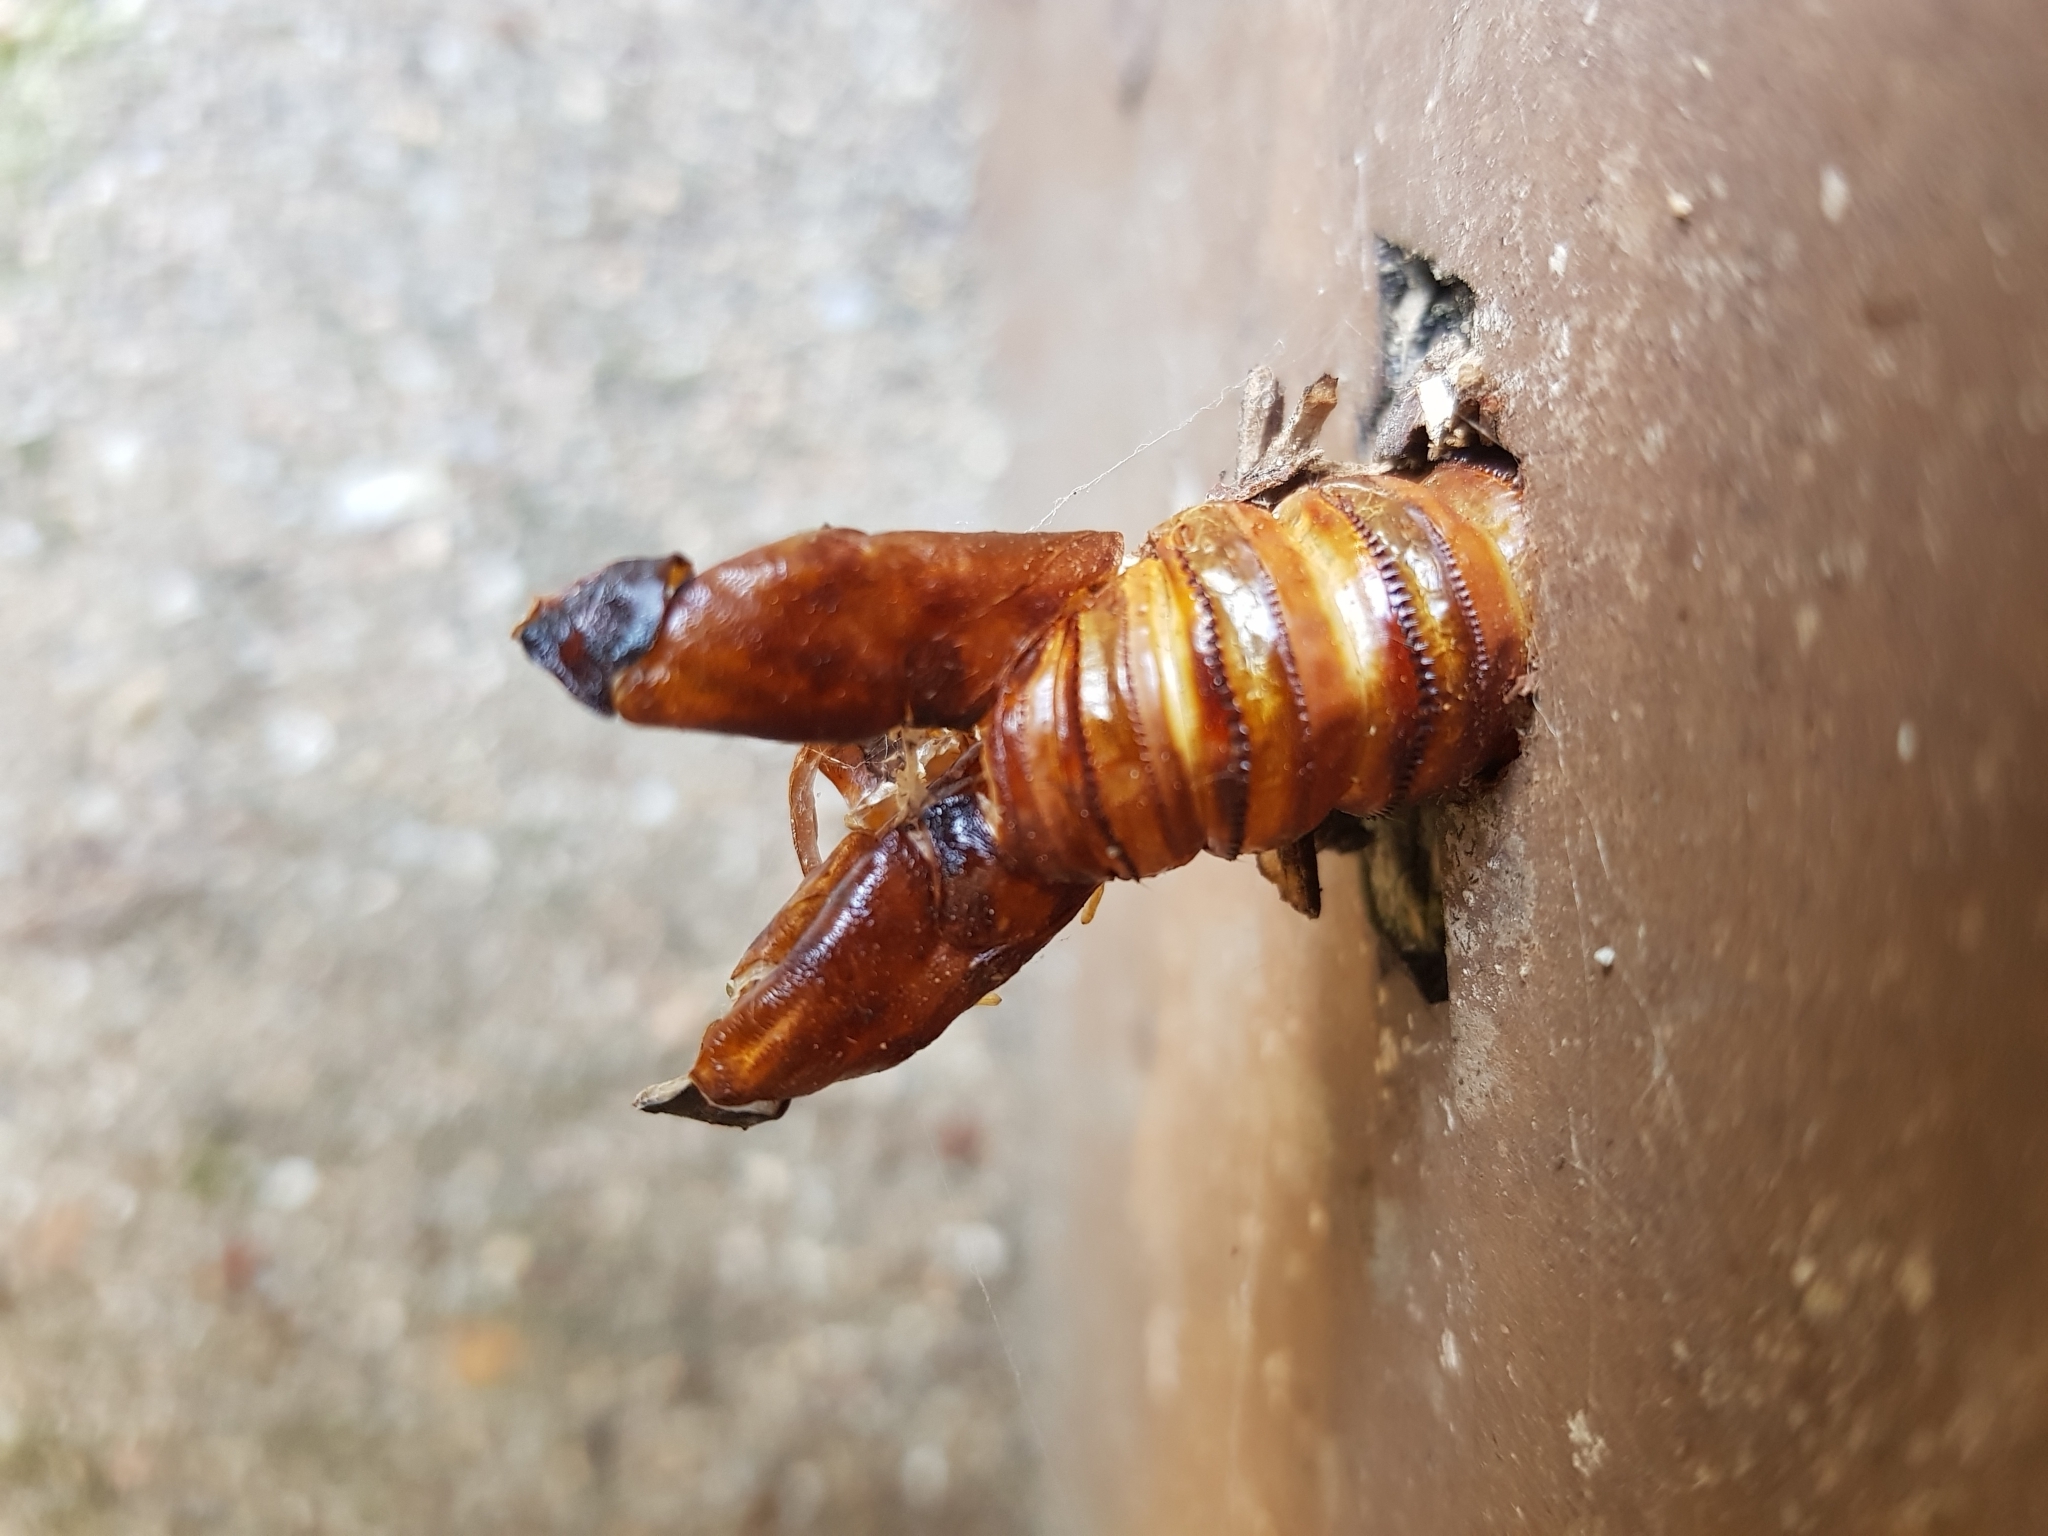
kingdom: Animalia
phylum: Arthropoda
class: Insecta
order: Lepidoptera
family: Castniidae
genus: Paysandisia
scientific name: Paysandisia archon
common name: Palm moth
